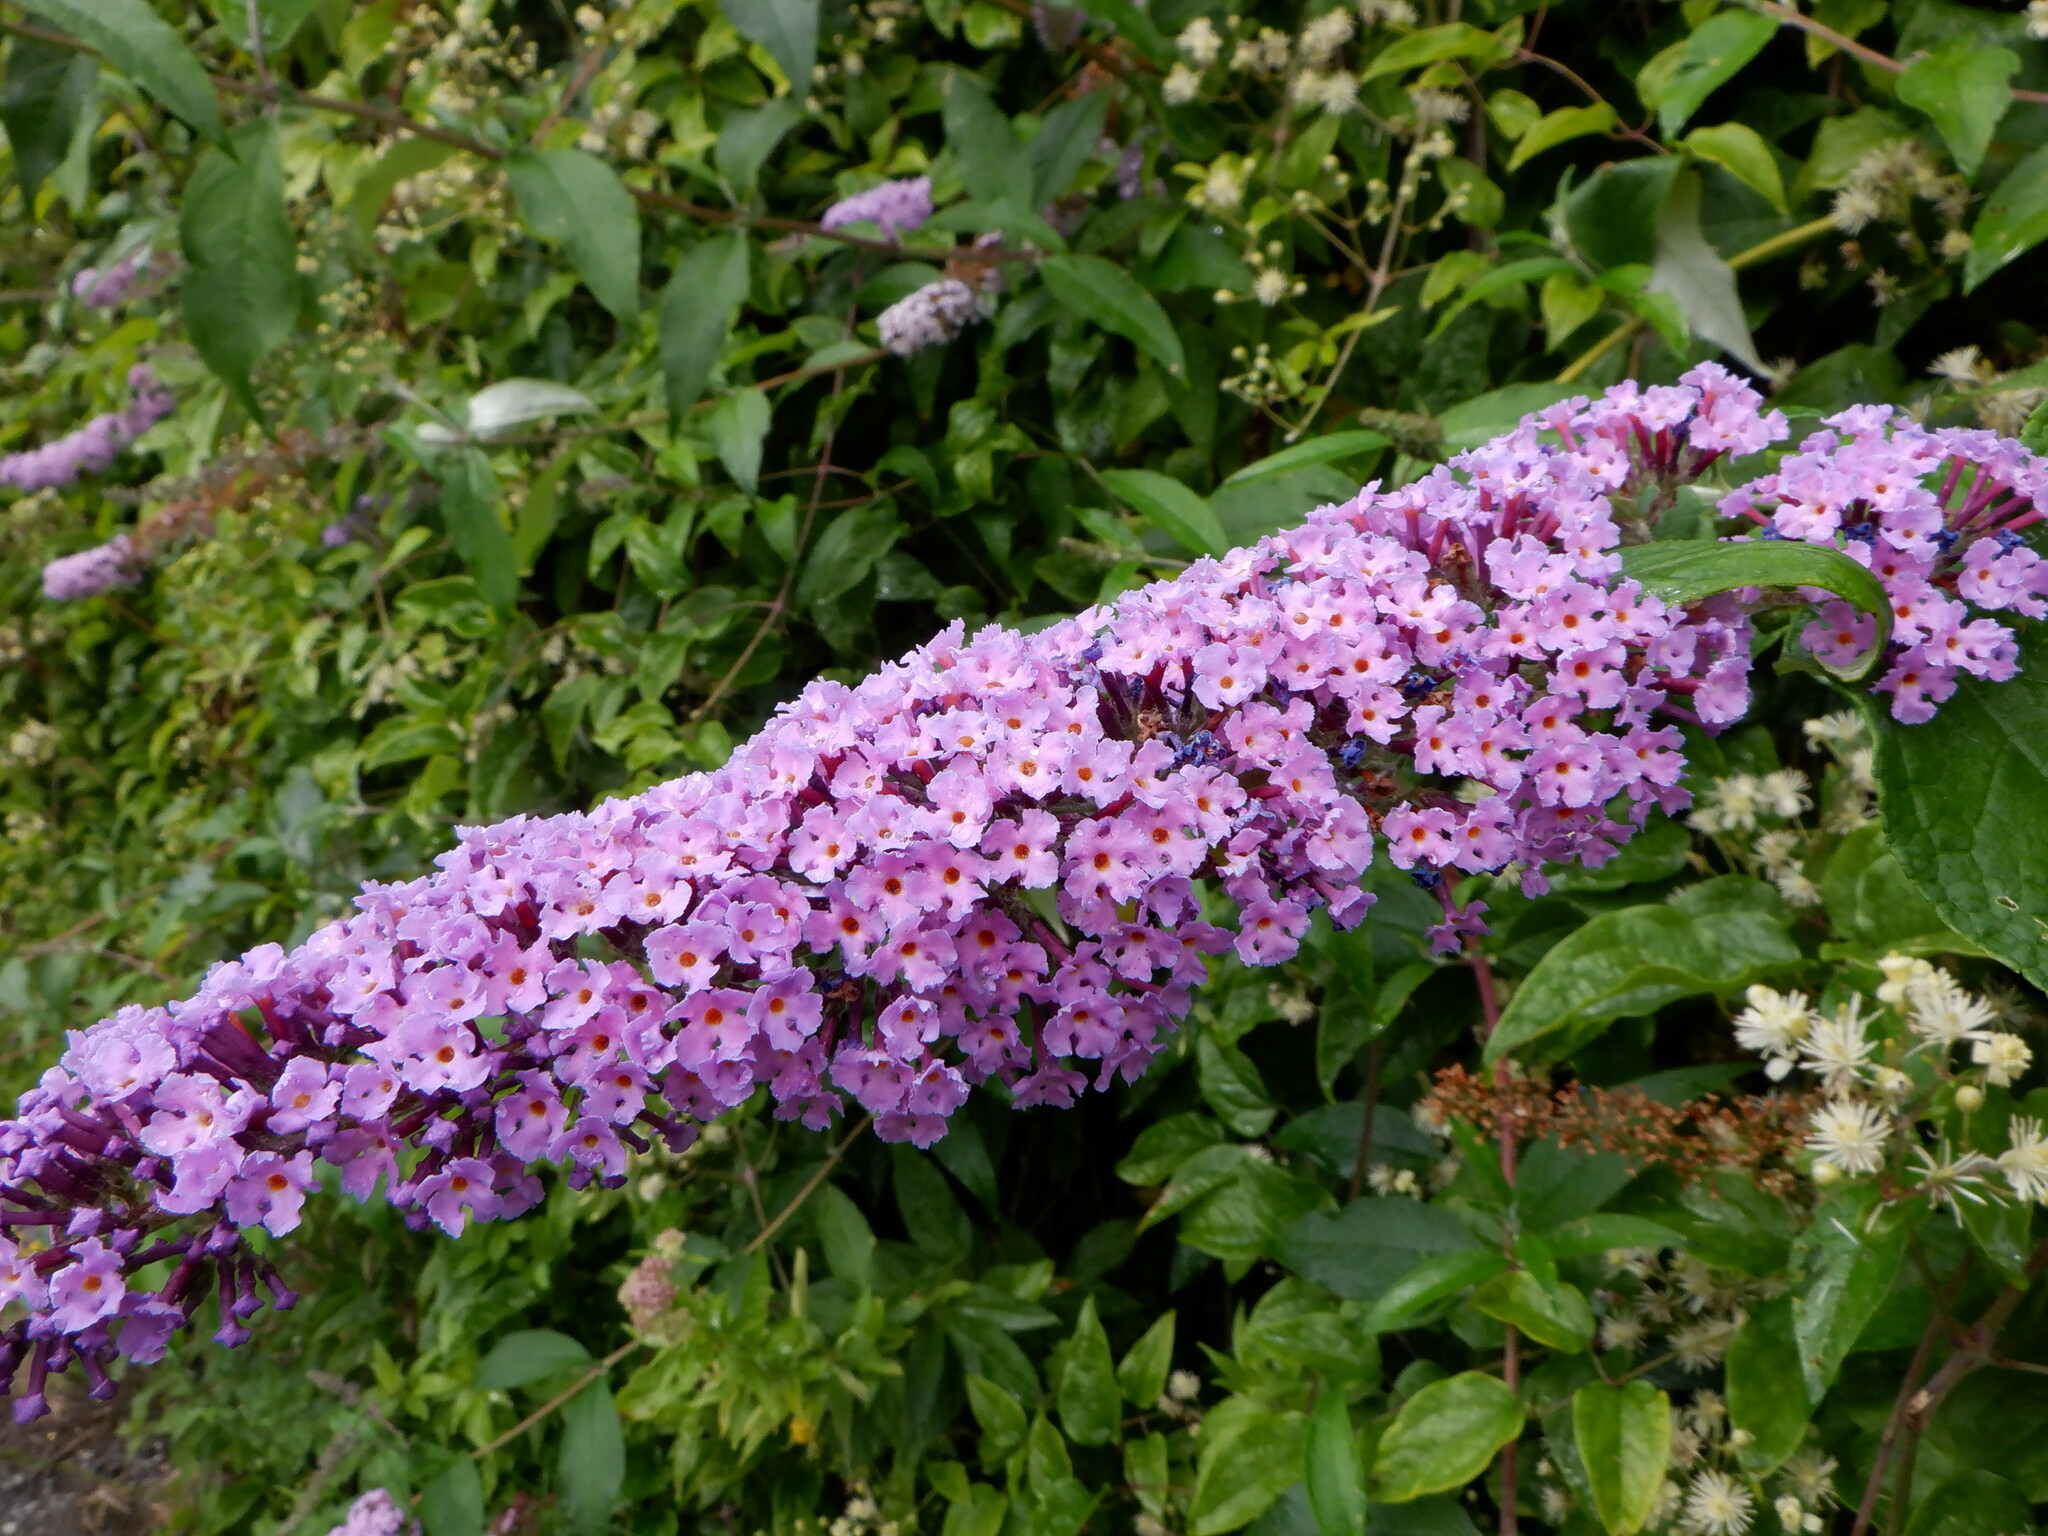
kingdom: Plantae
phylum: Tracheophyta
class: Magnoliopsida
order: Lamiales
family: Scrophulariaceae
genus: Buddleja
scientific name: Buddleja davidii
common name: Butterfly-bush
